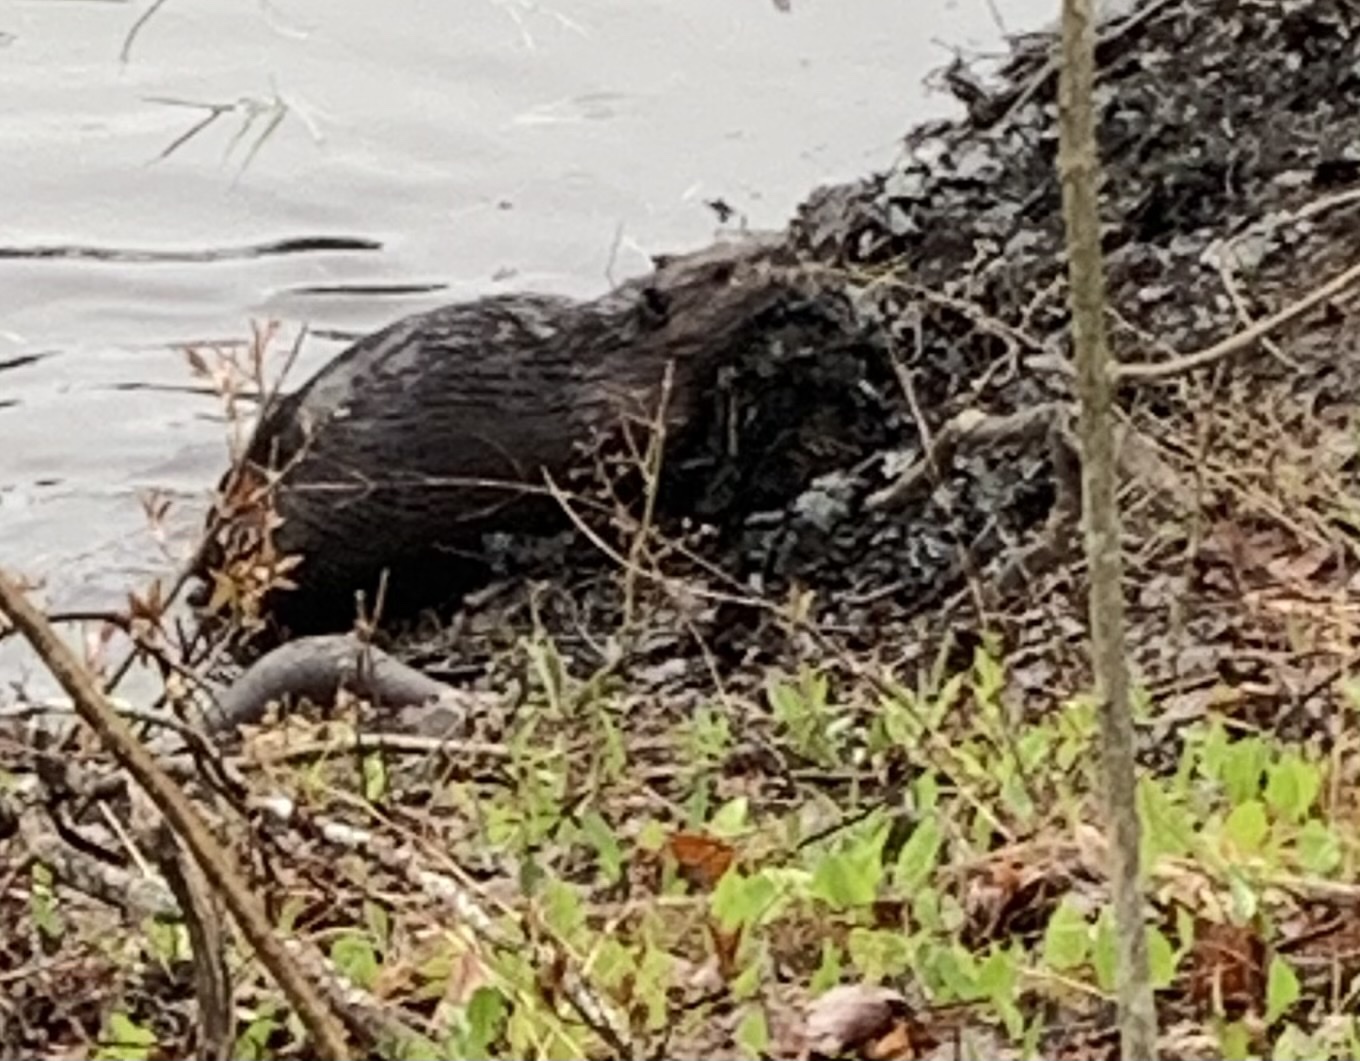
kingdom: Animalia
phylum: Chordata
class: Mammalia
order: Rodentia
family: Castoridae
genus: Castor
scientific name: Castor canadensis
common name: American beaver
